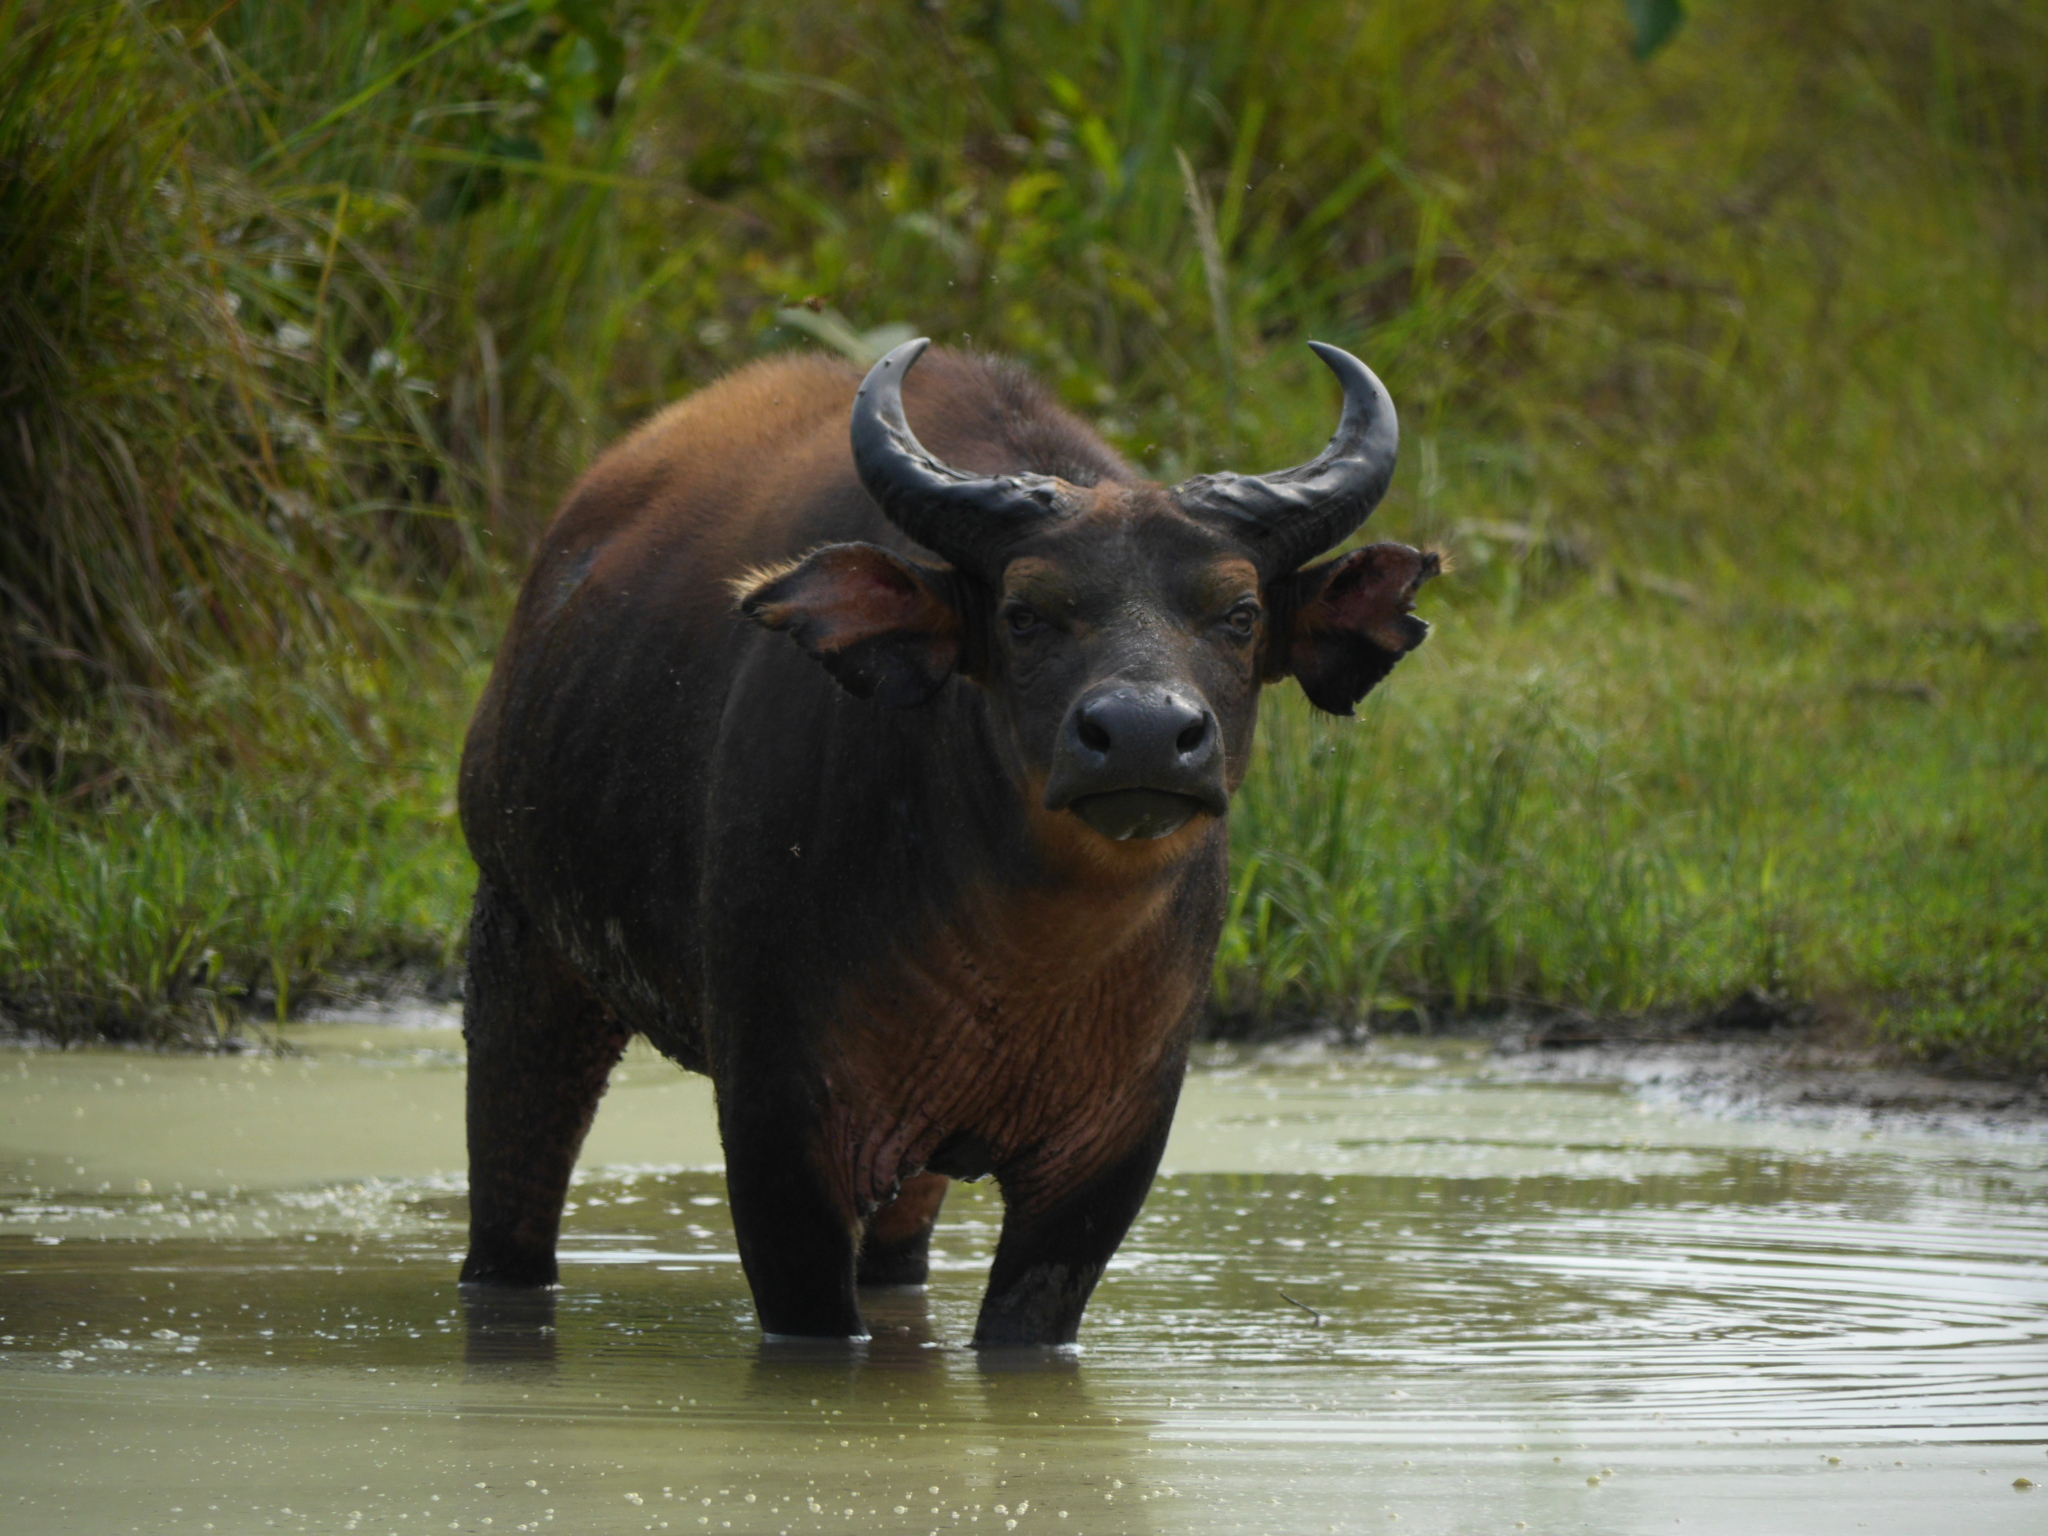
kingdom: Animalia
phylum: Chordata
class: Mammalia
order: Artiodactyla
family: Bovidae
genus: Syncerus
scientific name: Syncerus caffer
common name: African buffalo
